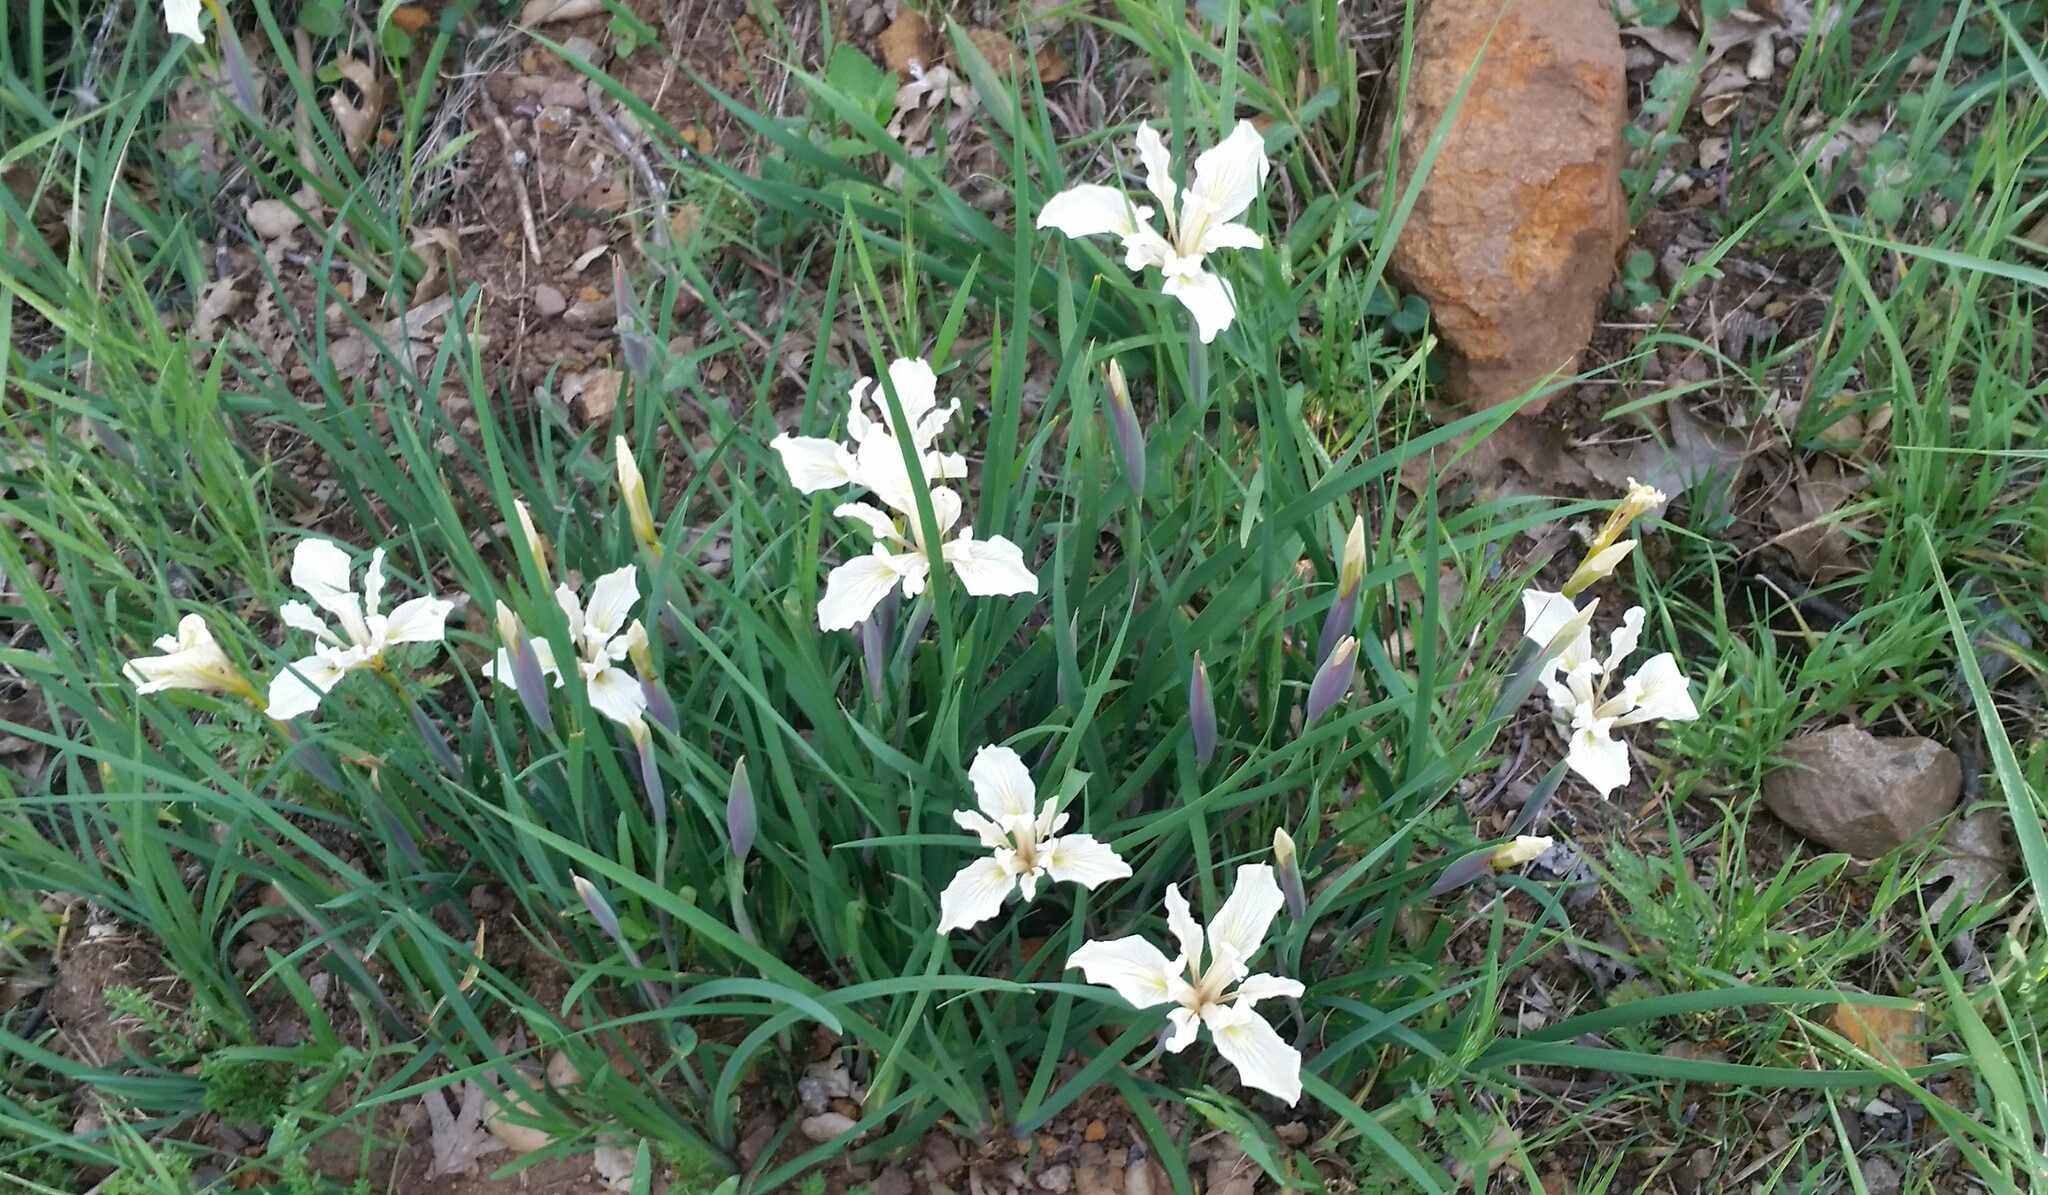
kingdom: Plantae
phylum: Tracheophyta
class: Liliopsida
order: Asparagales
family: Iridaceae
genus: Iris
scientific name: Iris fernaldii
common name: Fernald's iris
